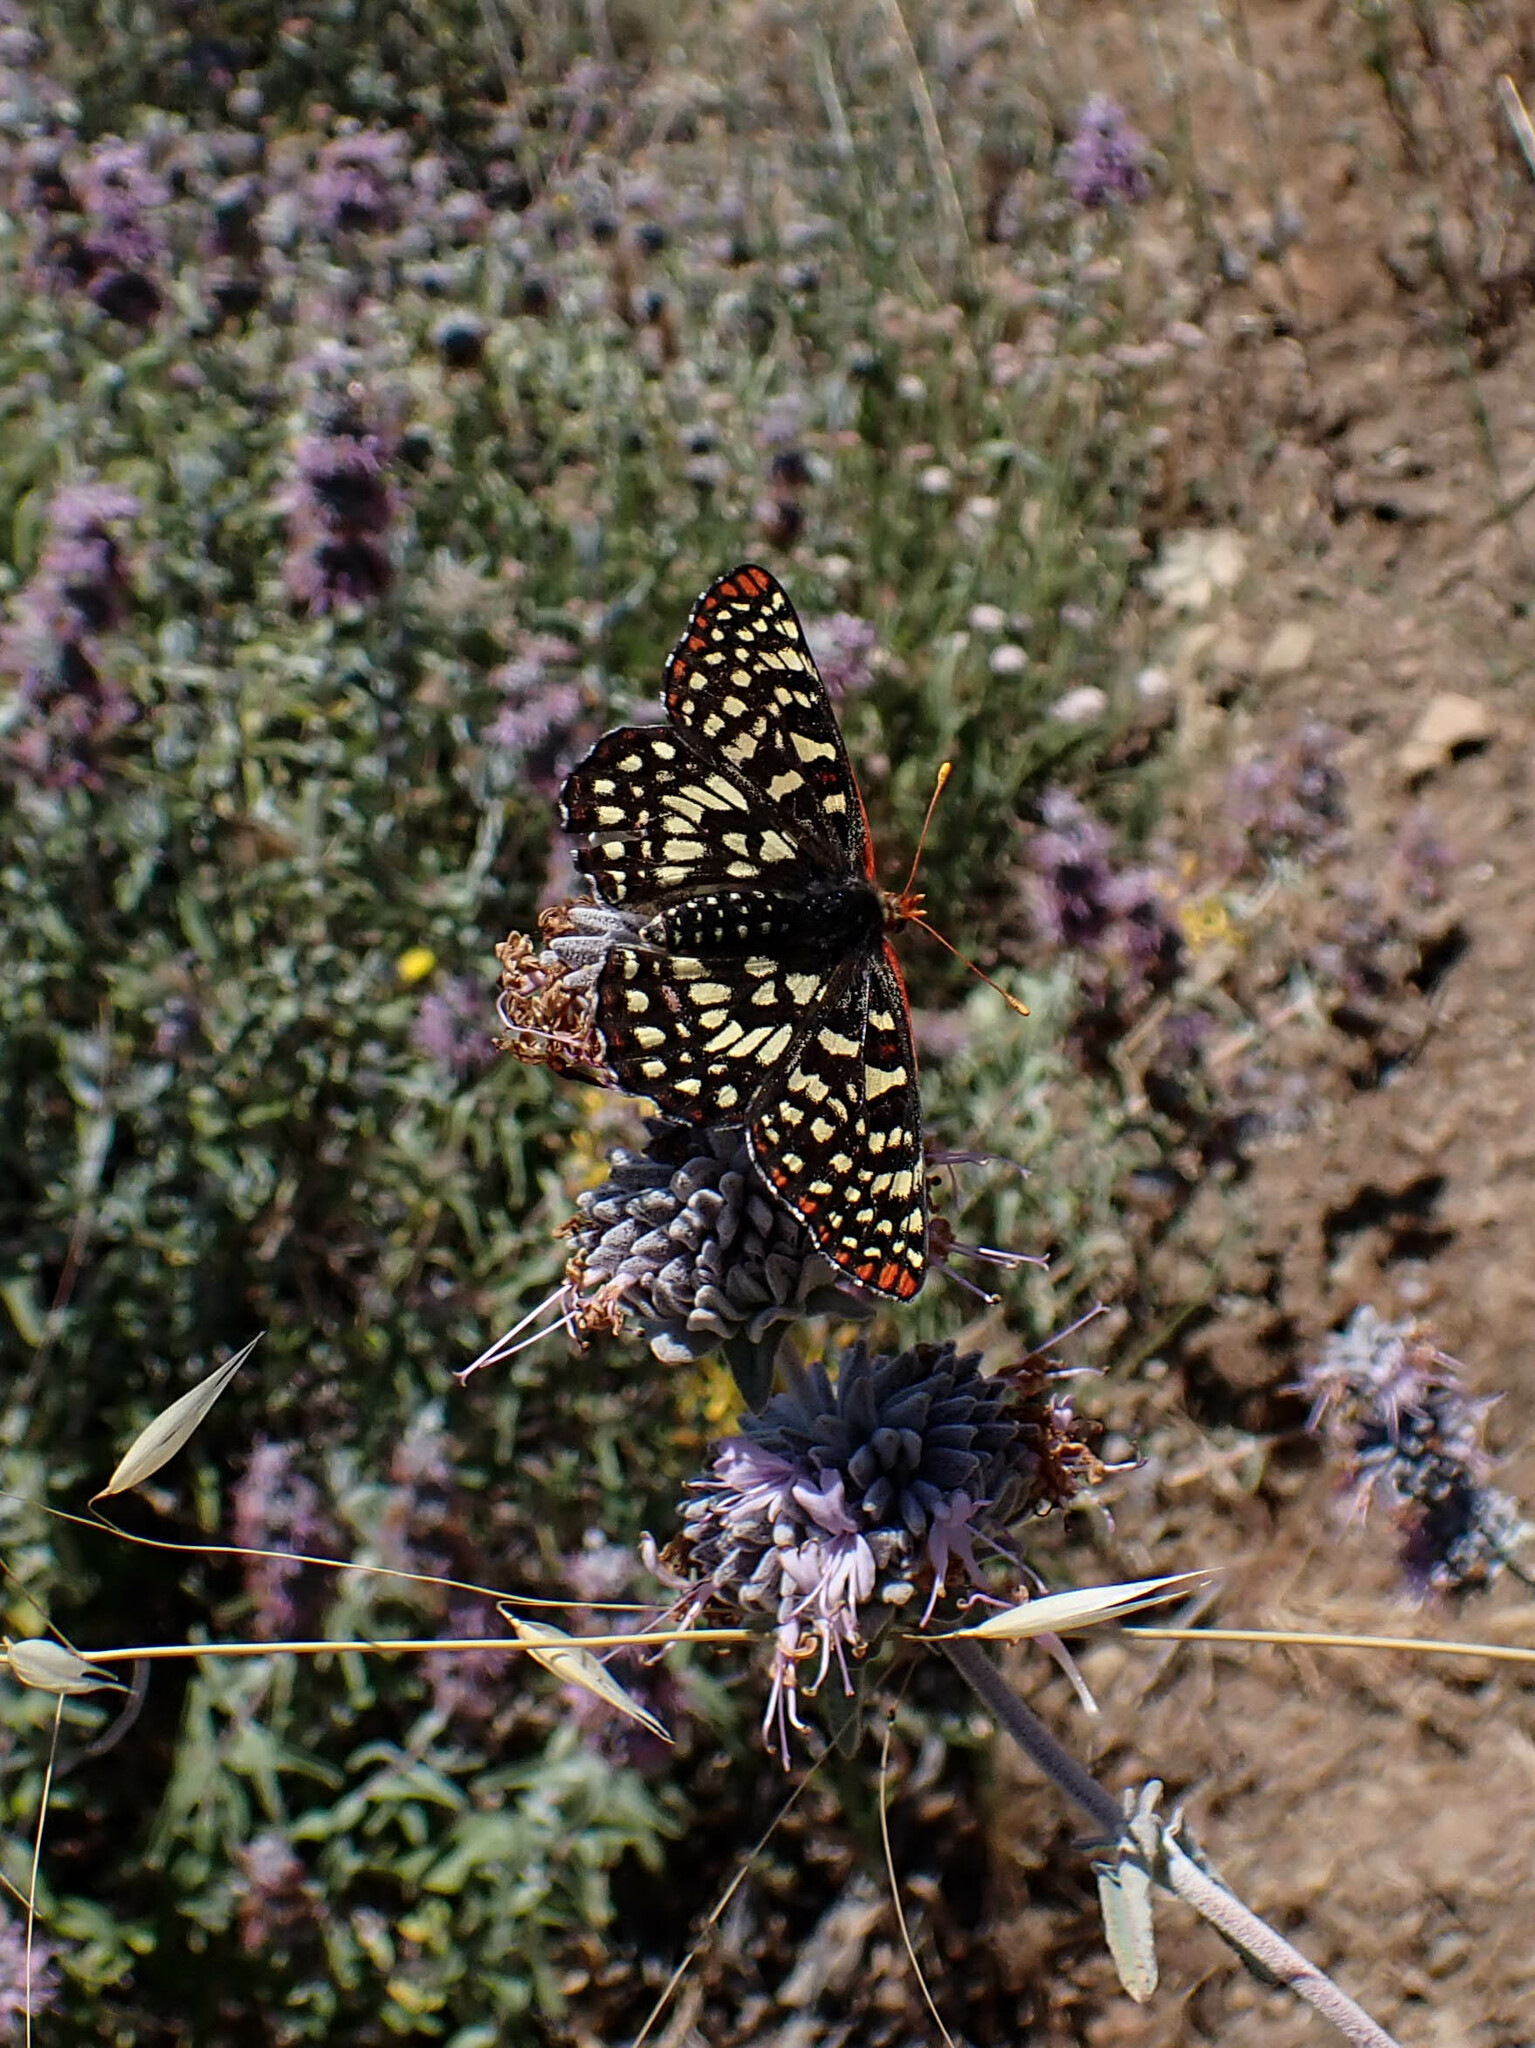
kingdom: Animalia
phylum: Arthropoda
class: Insecta
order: Lepidoptera
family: Nymphalidae
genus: Occidryas
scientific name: Occidryas chalcedona
